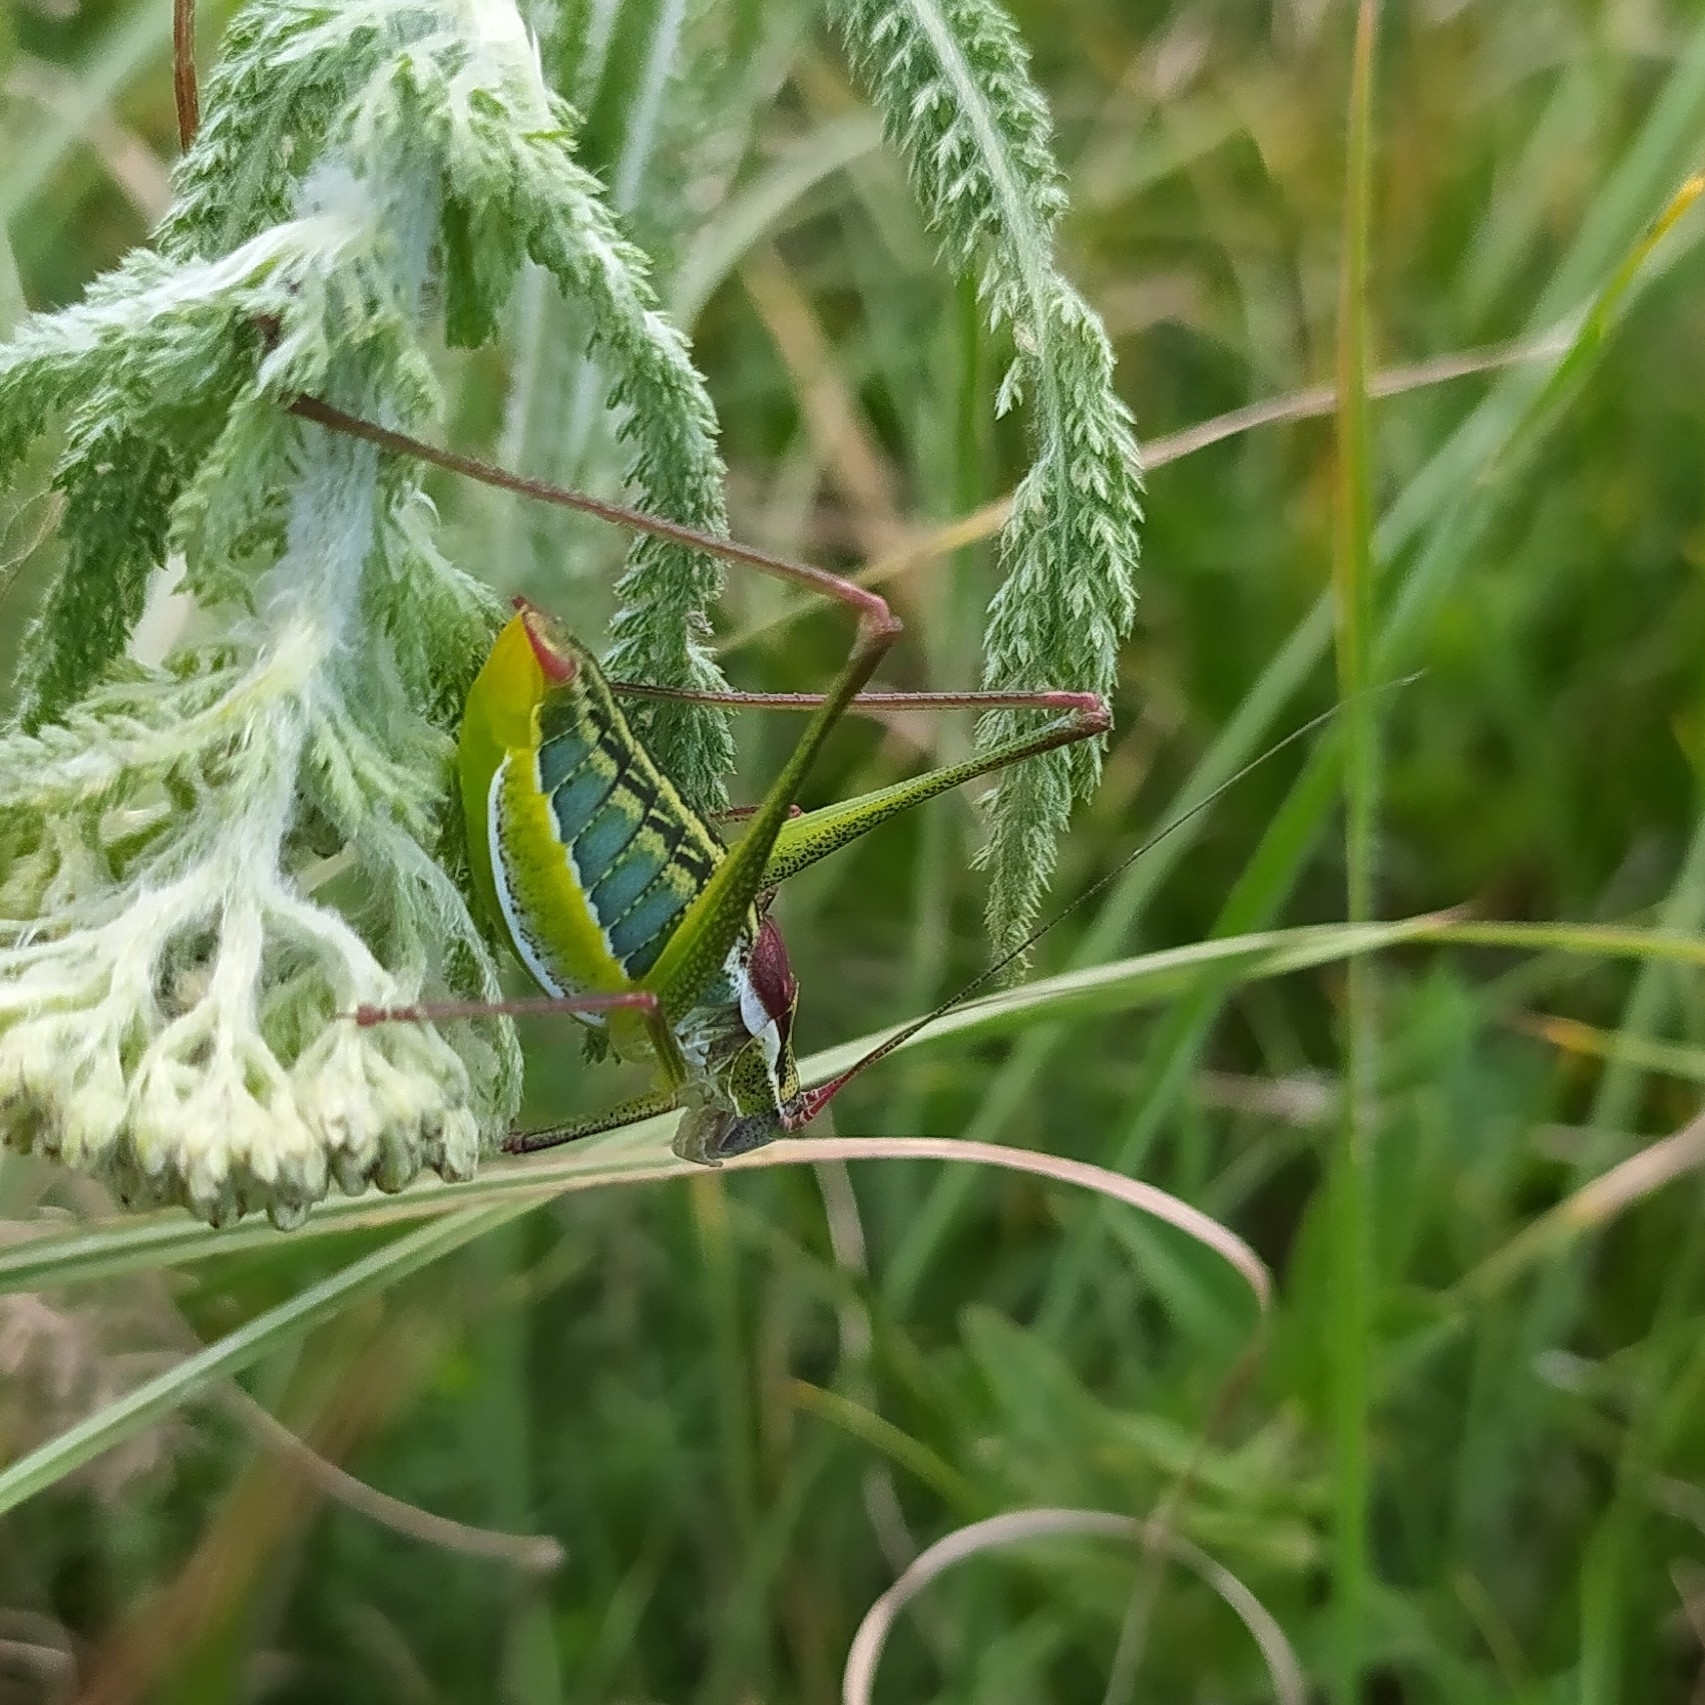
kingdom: Animalia
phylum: Arthropoda
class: Insecta
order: Orthoptera
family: Tettigoniidae
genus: Isophya
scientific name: Isophya taurica
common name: Krymean plump bush-cricket
